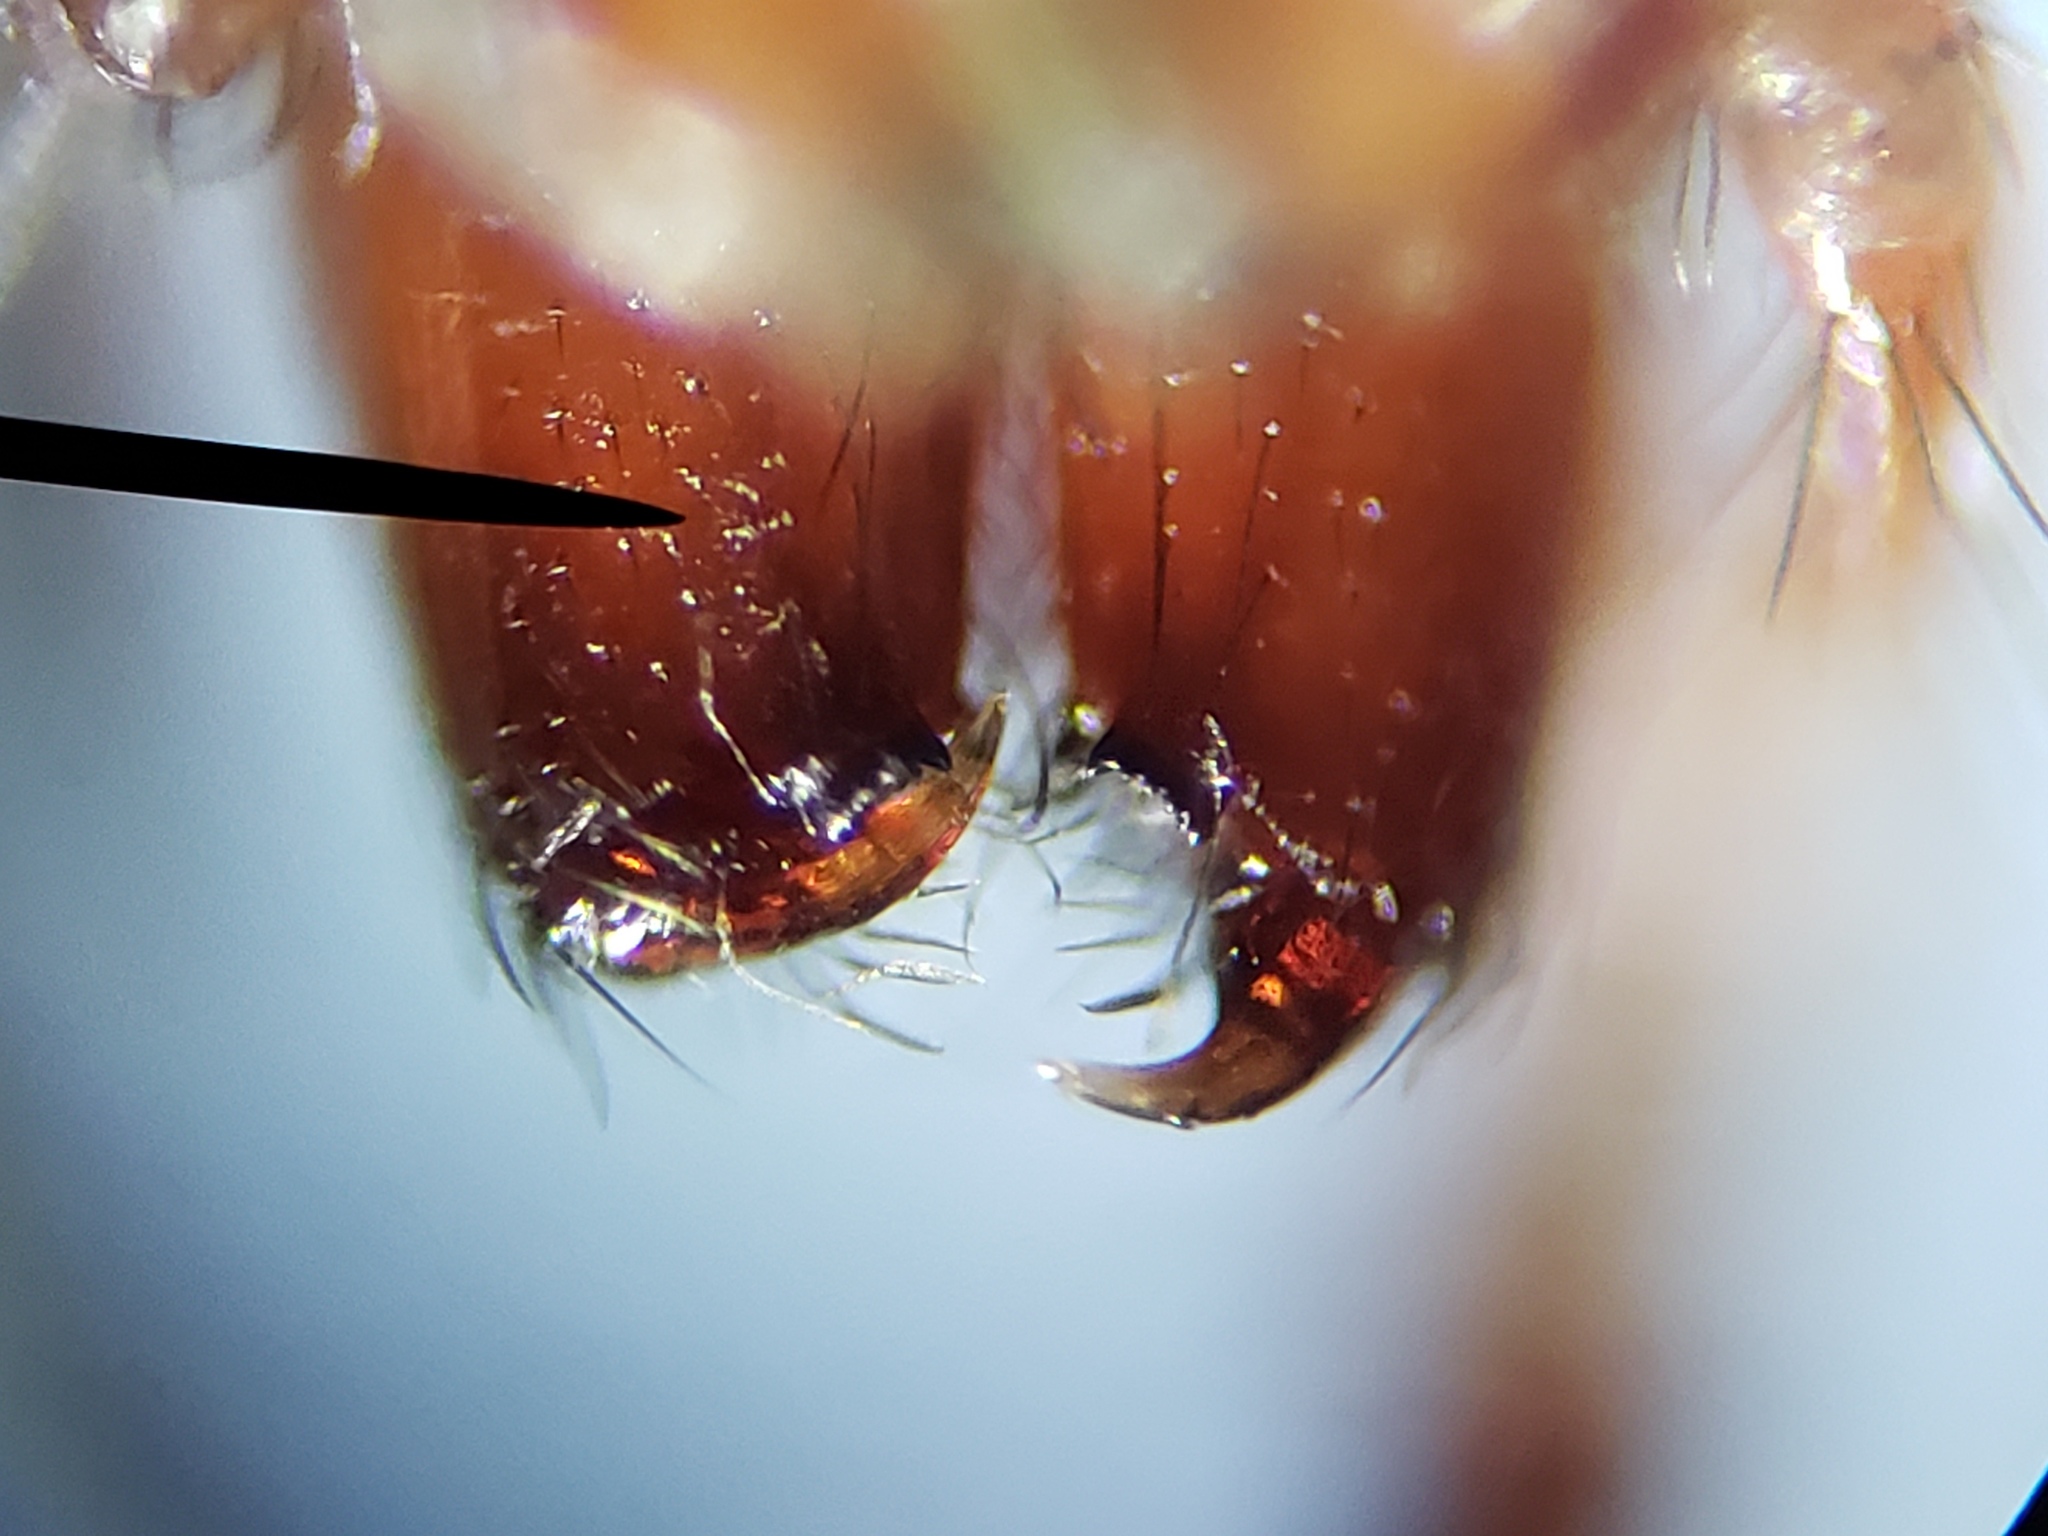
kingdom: Animalia
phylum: Arthropoda
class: Arachnida
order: Araneae
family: Gnaphosidae
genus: Gnaphosa
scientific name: Gnaphosa sericata
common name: Ground spiders
